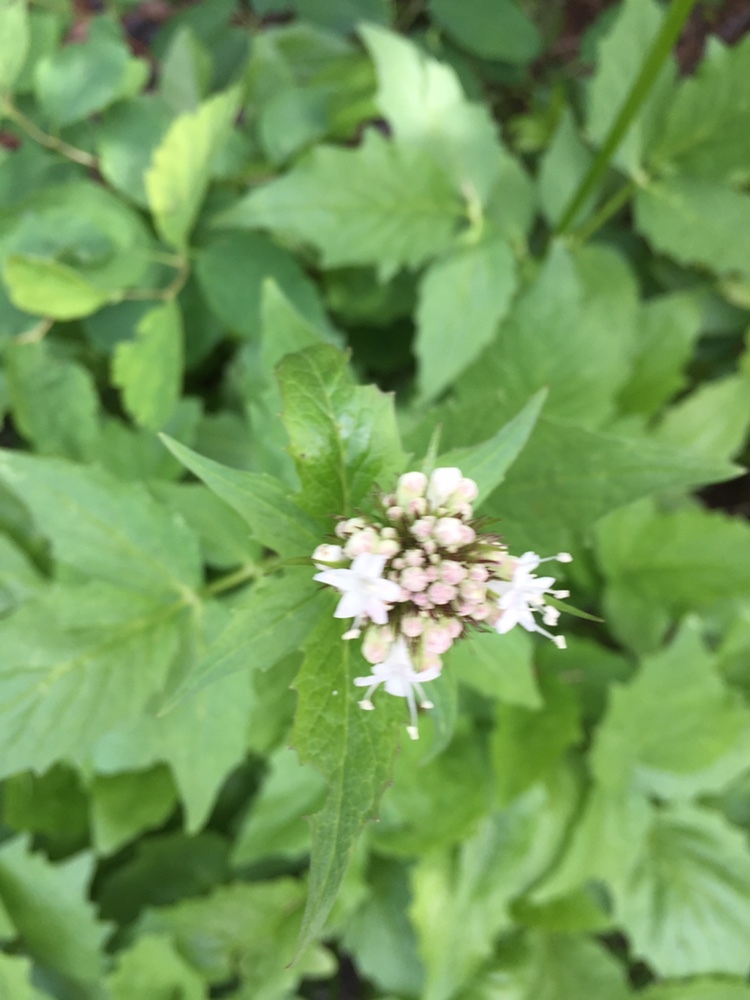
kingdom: Plantae
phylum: Tracheophyta
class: Magnoliopsida
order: Dipsacales
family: Caprifoliaceae
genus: Valeriana
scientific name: Valeriana sitchensis
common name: Pacific valerian
